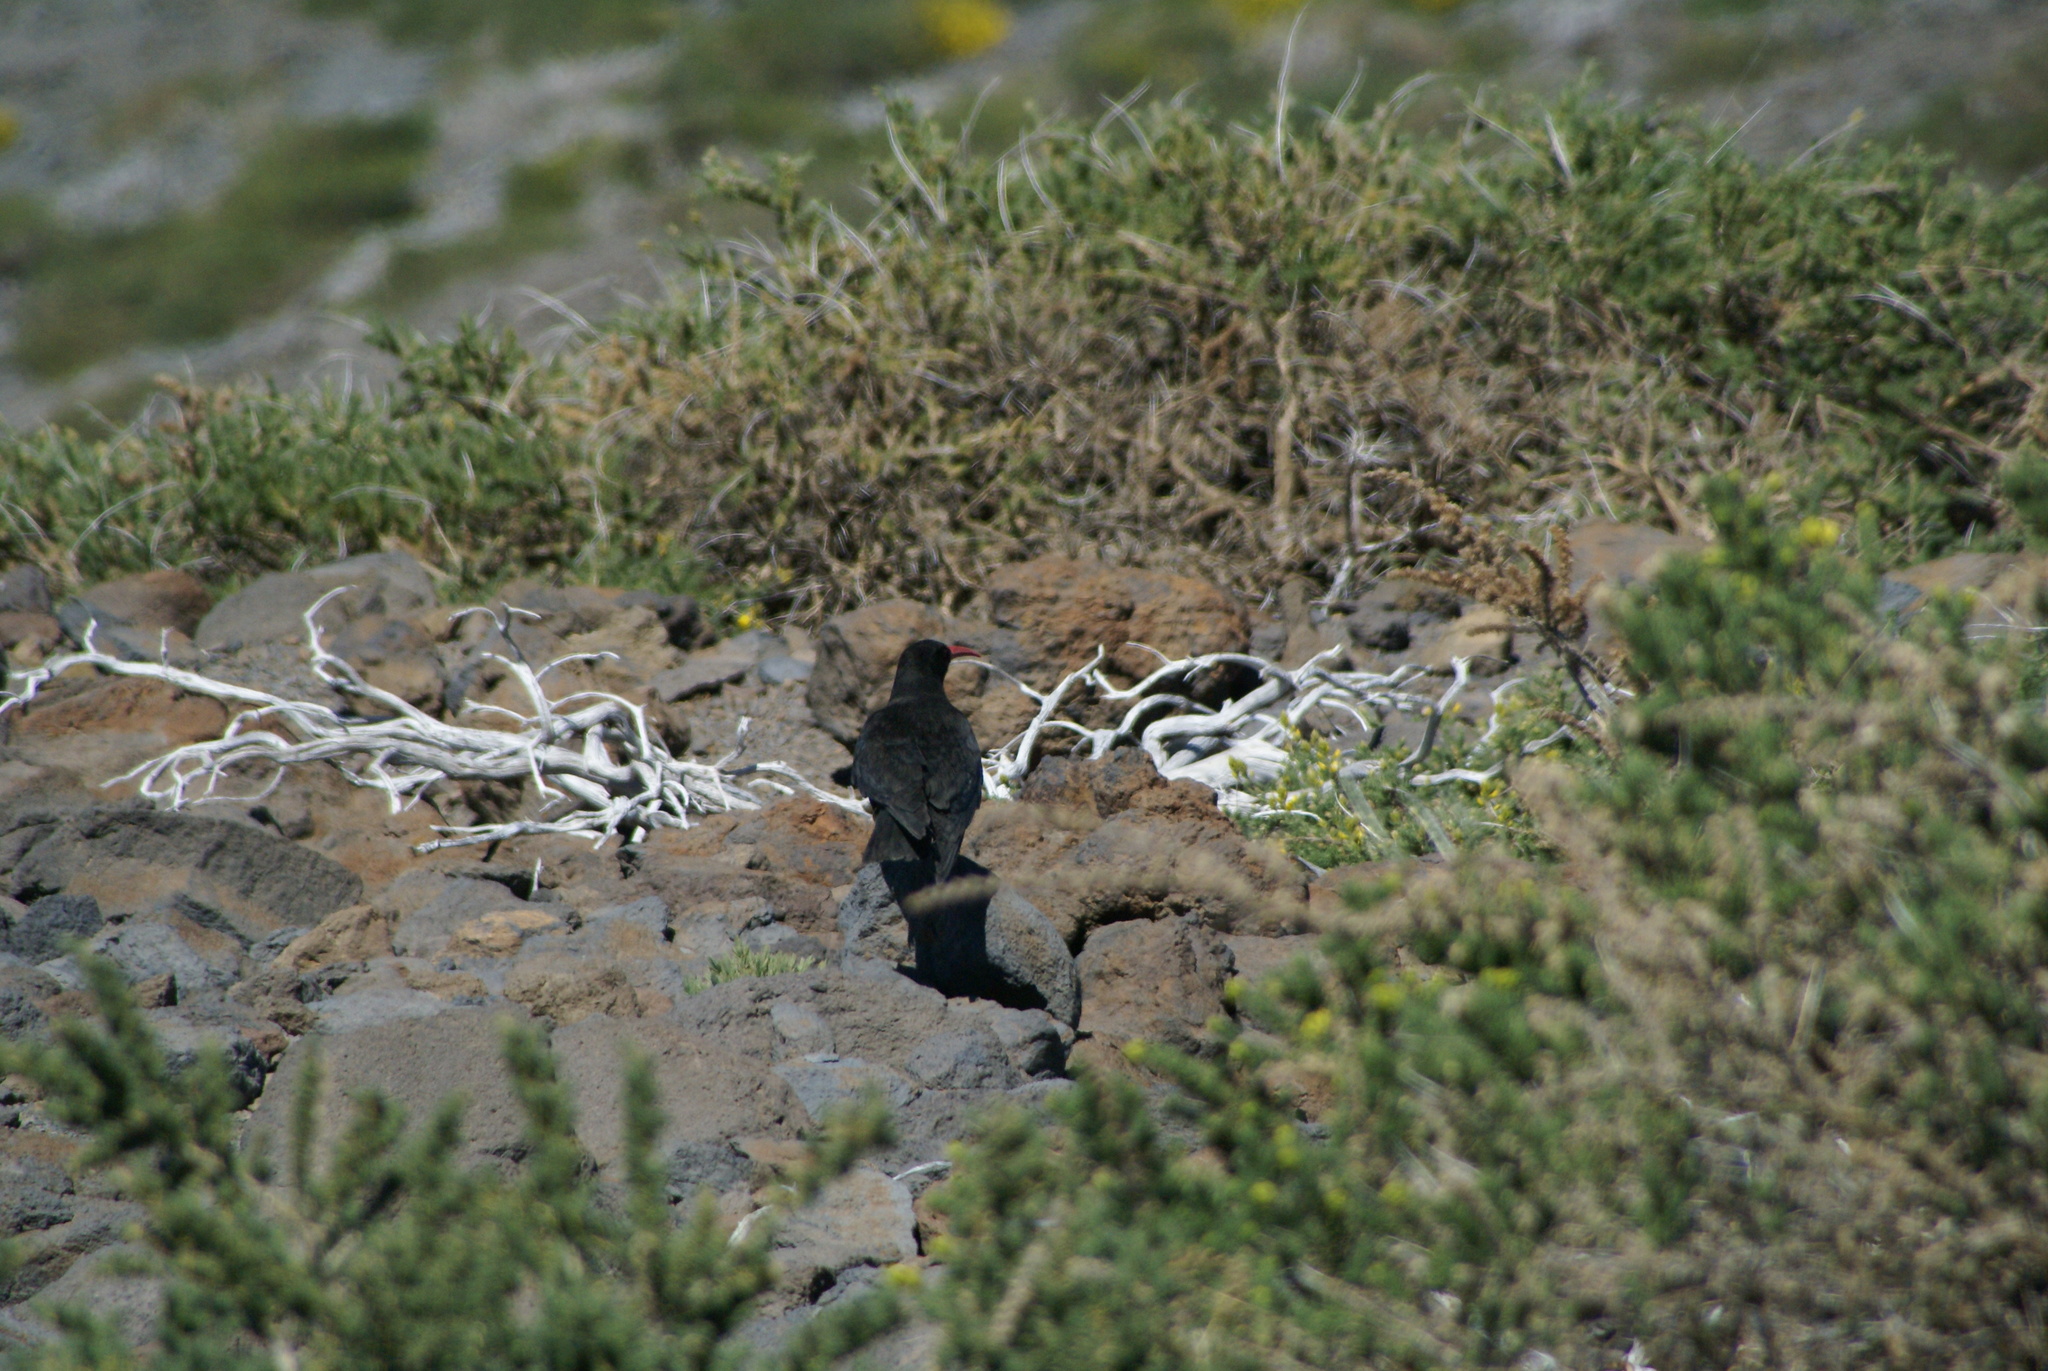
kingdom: Animalia
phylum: Chordata
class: Aves
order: Passeriformes
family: Corvidae
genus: Pyrrhocorax
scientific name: Pyrrhocorax pyrrhocorax
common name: Red-billed chough
